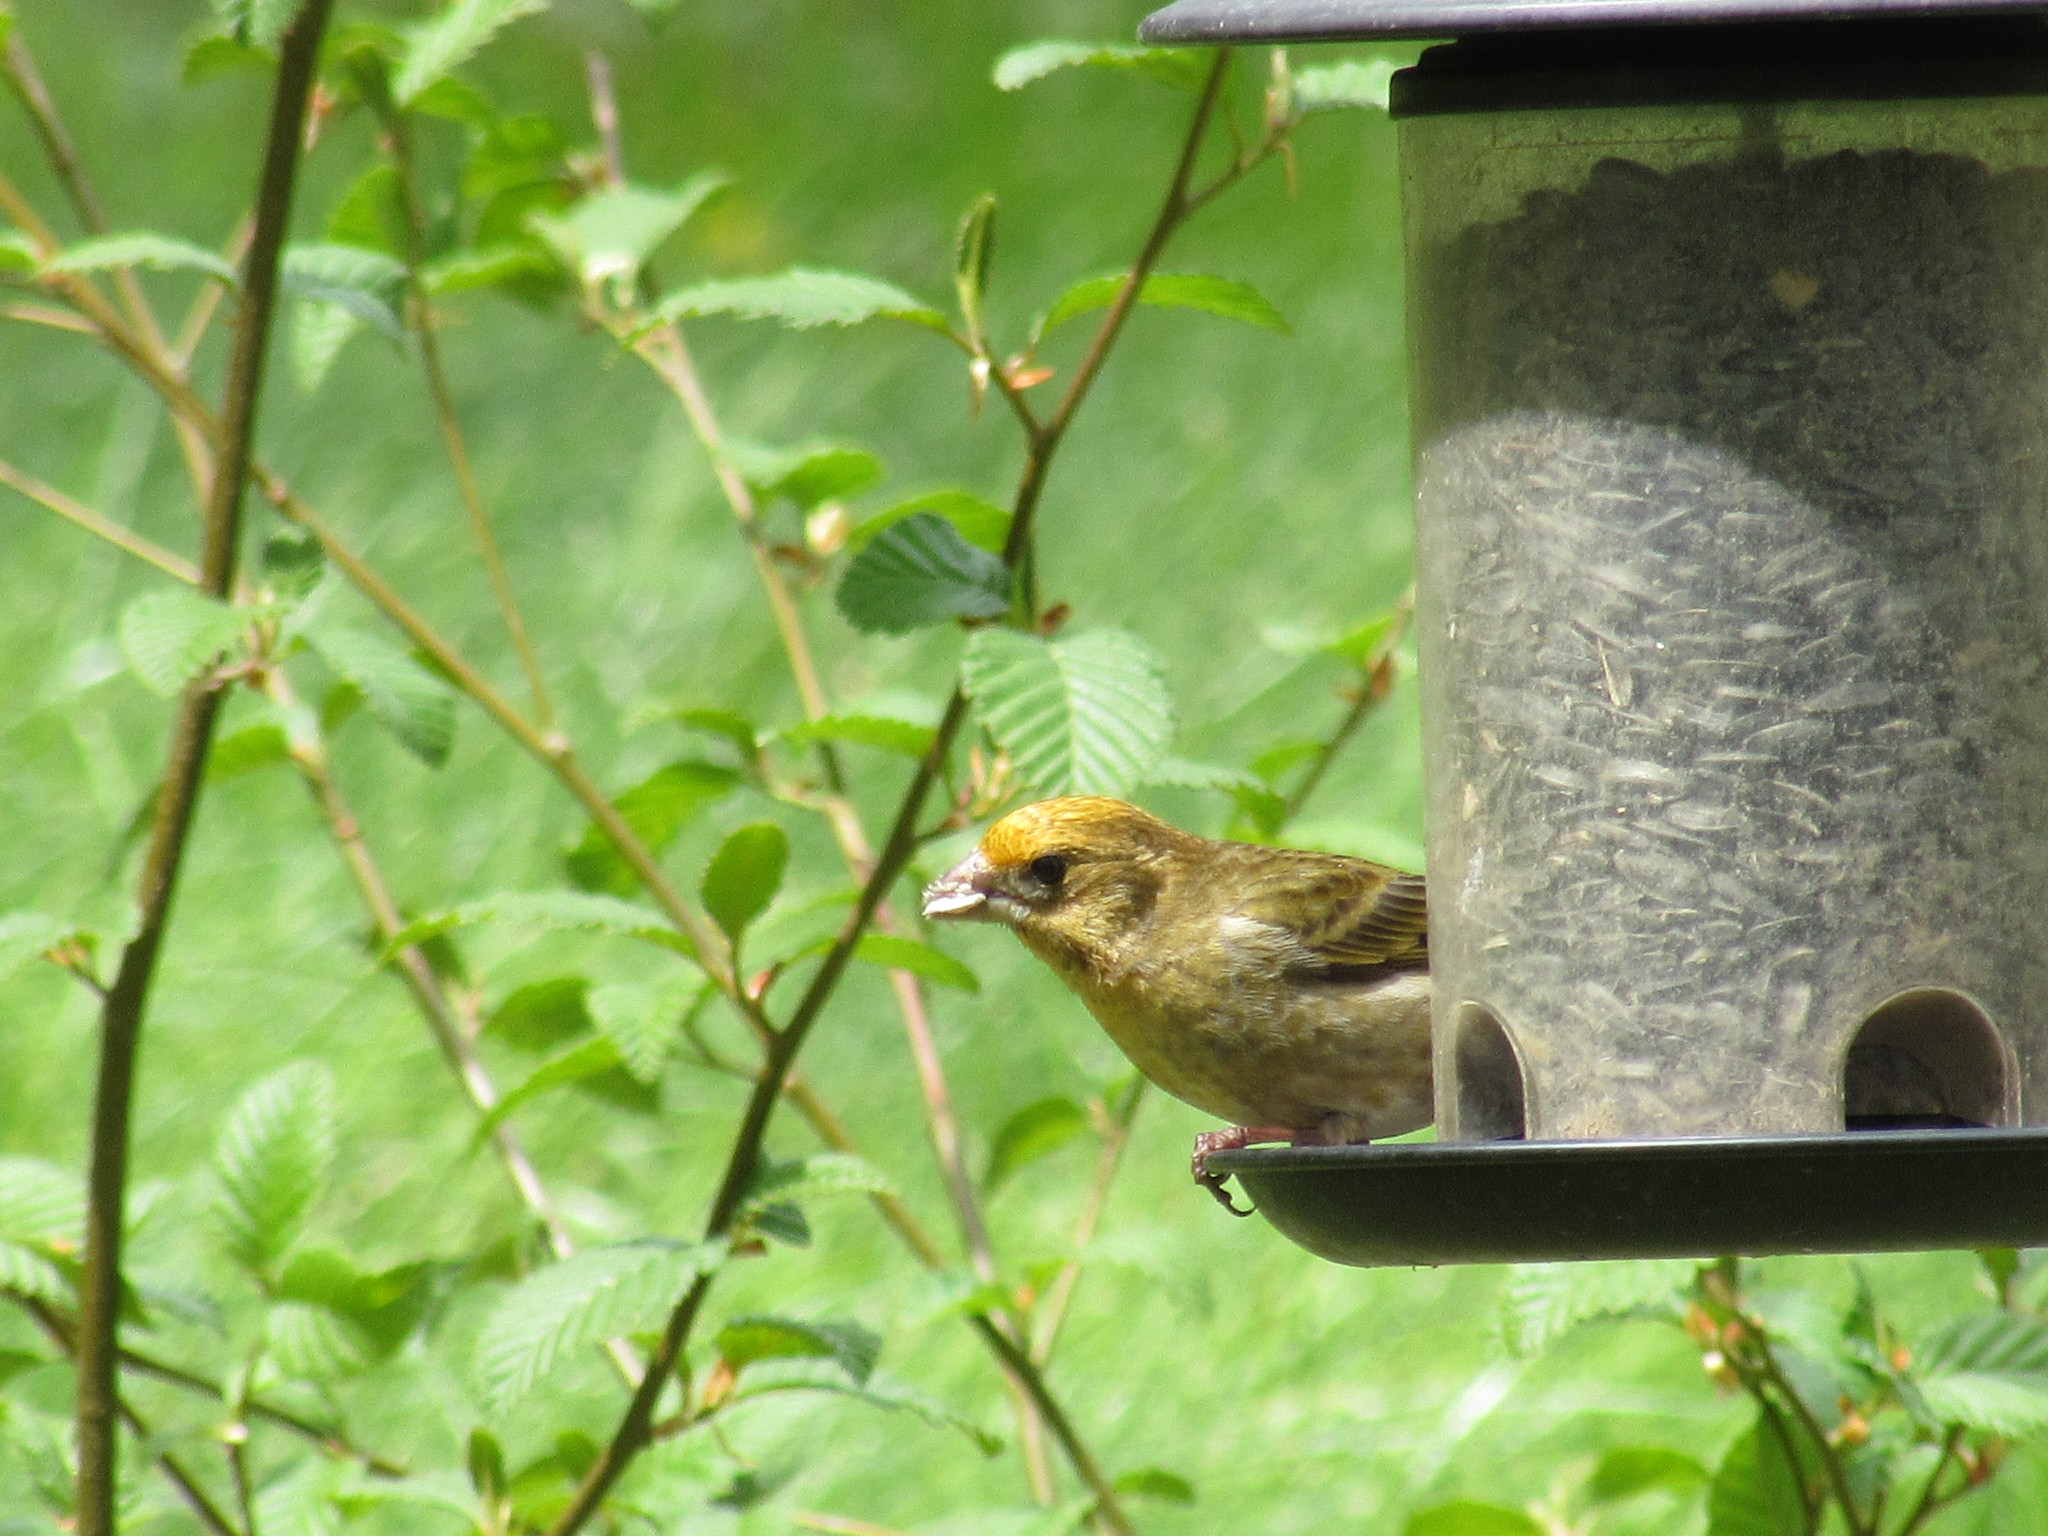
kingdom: Animalia
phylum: Chordata
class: Aves
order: Passeriformes
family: Fringillidae
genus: Haemorhous
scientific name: Haemorhous purpureus
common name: Purple finch
